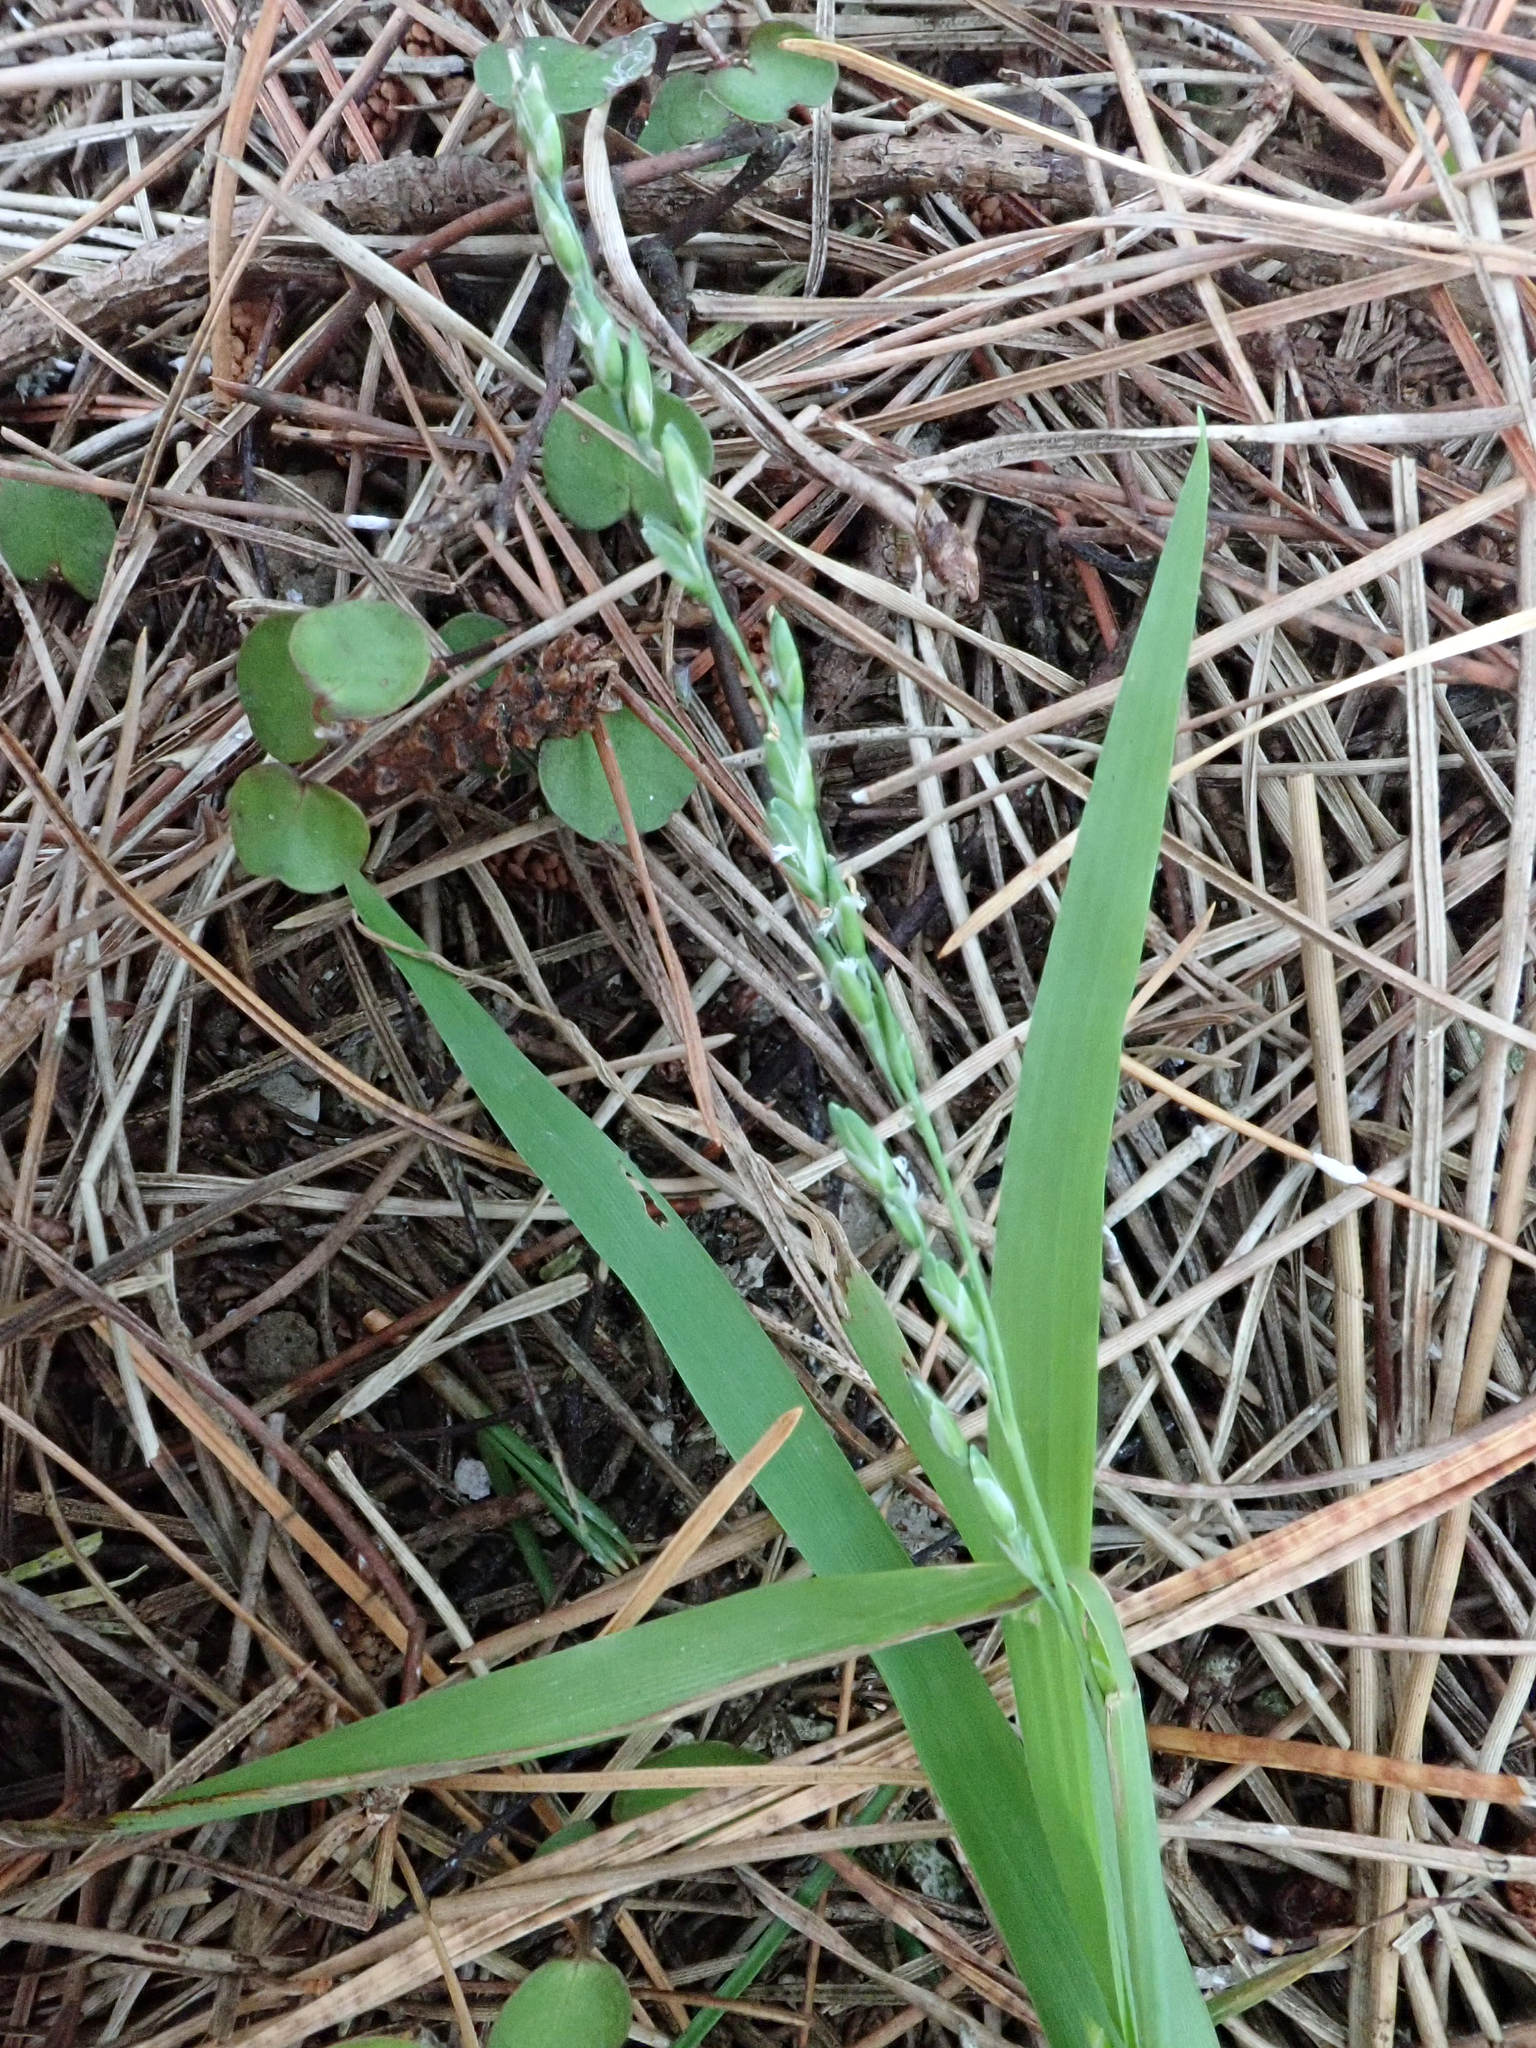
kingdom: Plantae
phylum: Tracheophyta
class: Liliopsida
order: Poales
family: Poaceae
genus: Ehrharta
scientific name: Ehrharta erecta
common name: Panic veldtgrass
